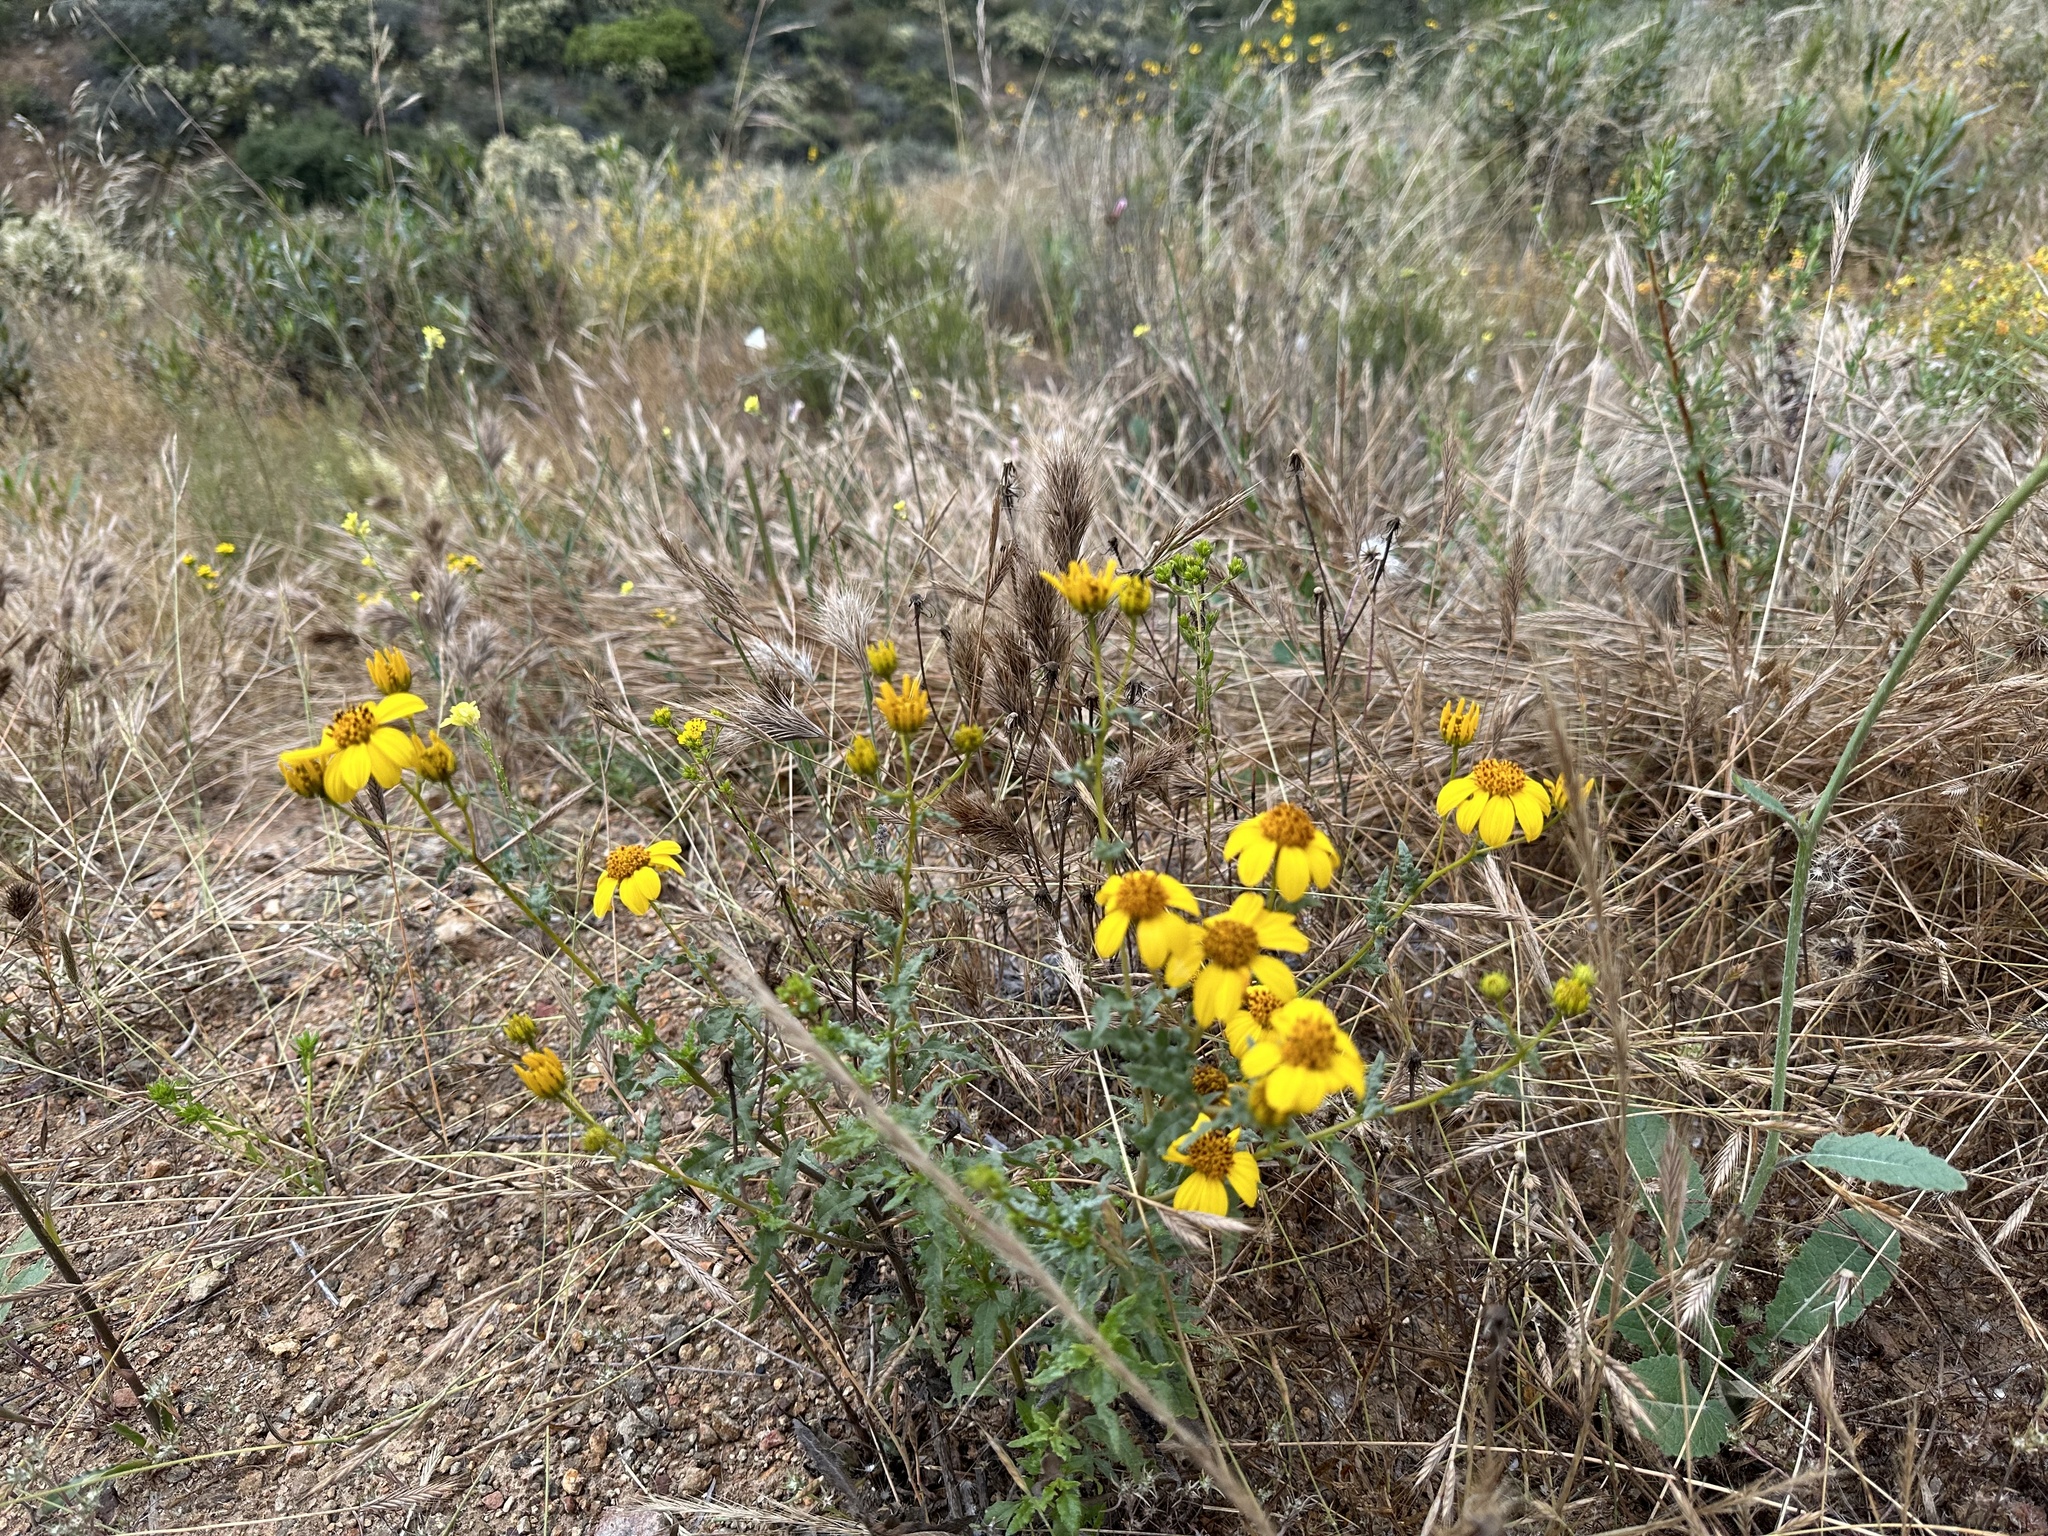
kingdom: Plantae
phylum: Tracheophyta
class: Magnoliopsida
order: Asterales
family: Asteraceae
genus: Bahiopsis
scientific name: Bahiopsis laciniata
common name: San diego county viguiera
